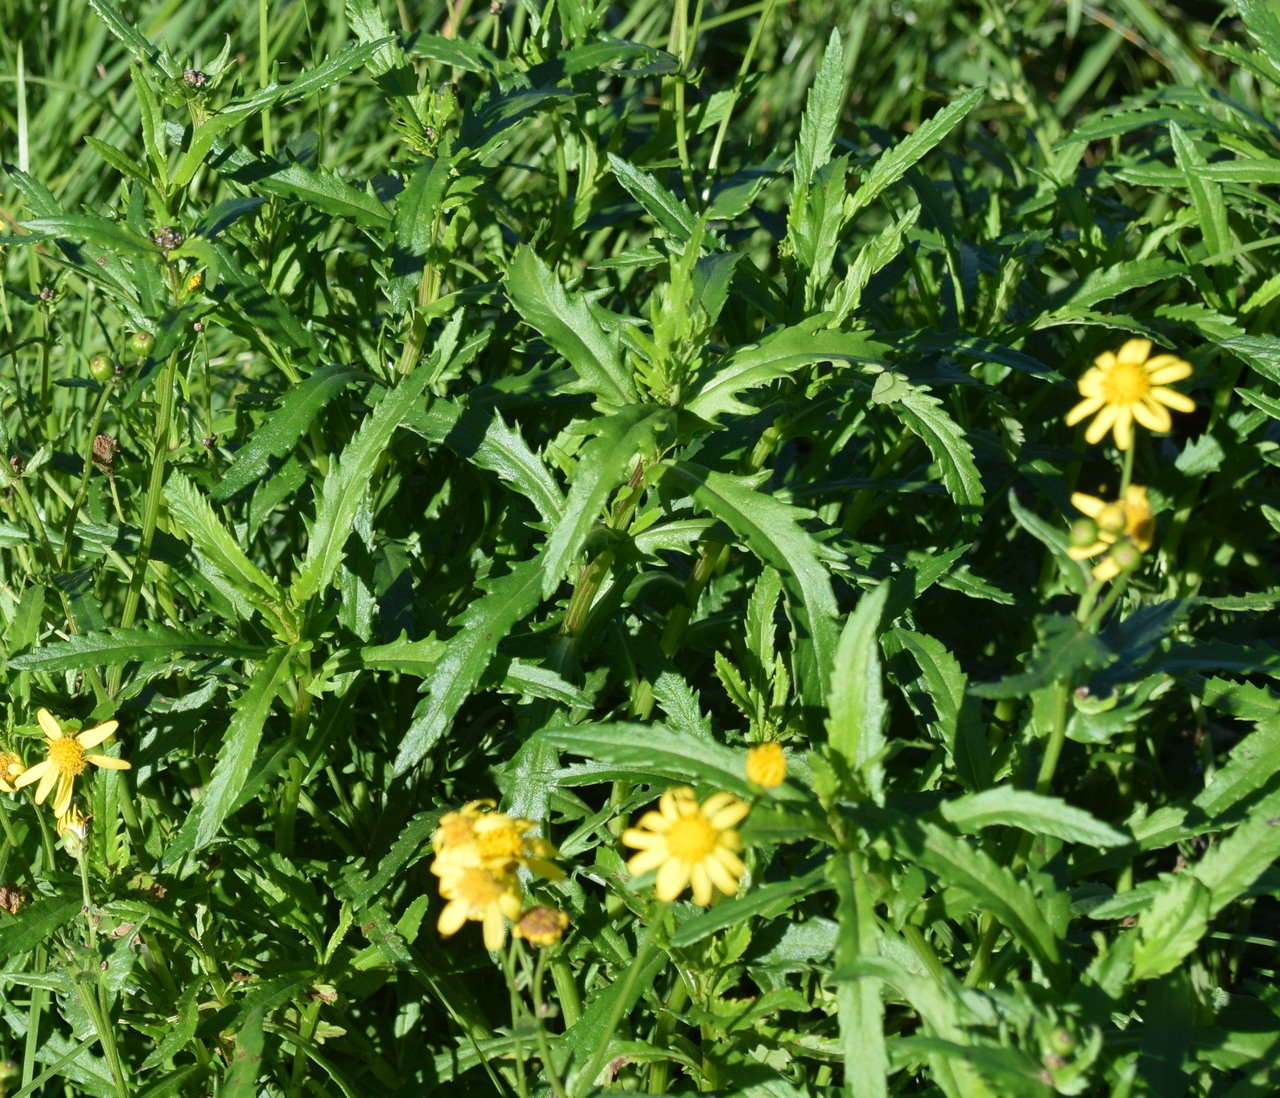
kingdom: Plantae
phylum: Tracheophyta
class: Magnoliopsida
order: Asterales
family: Asteraceae
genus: Senecio
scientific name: Senecio pinnatifolius
